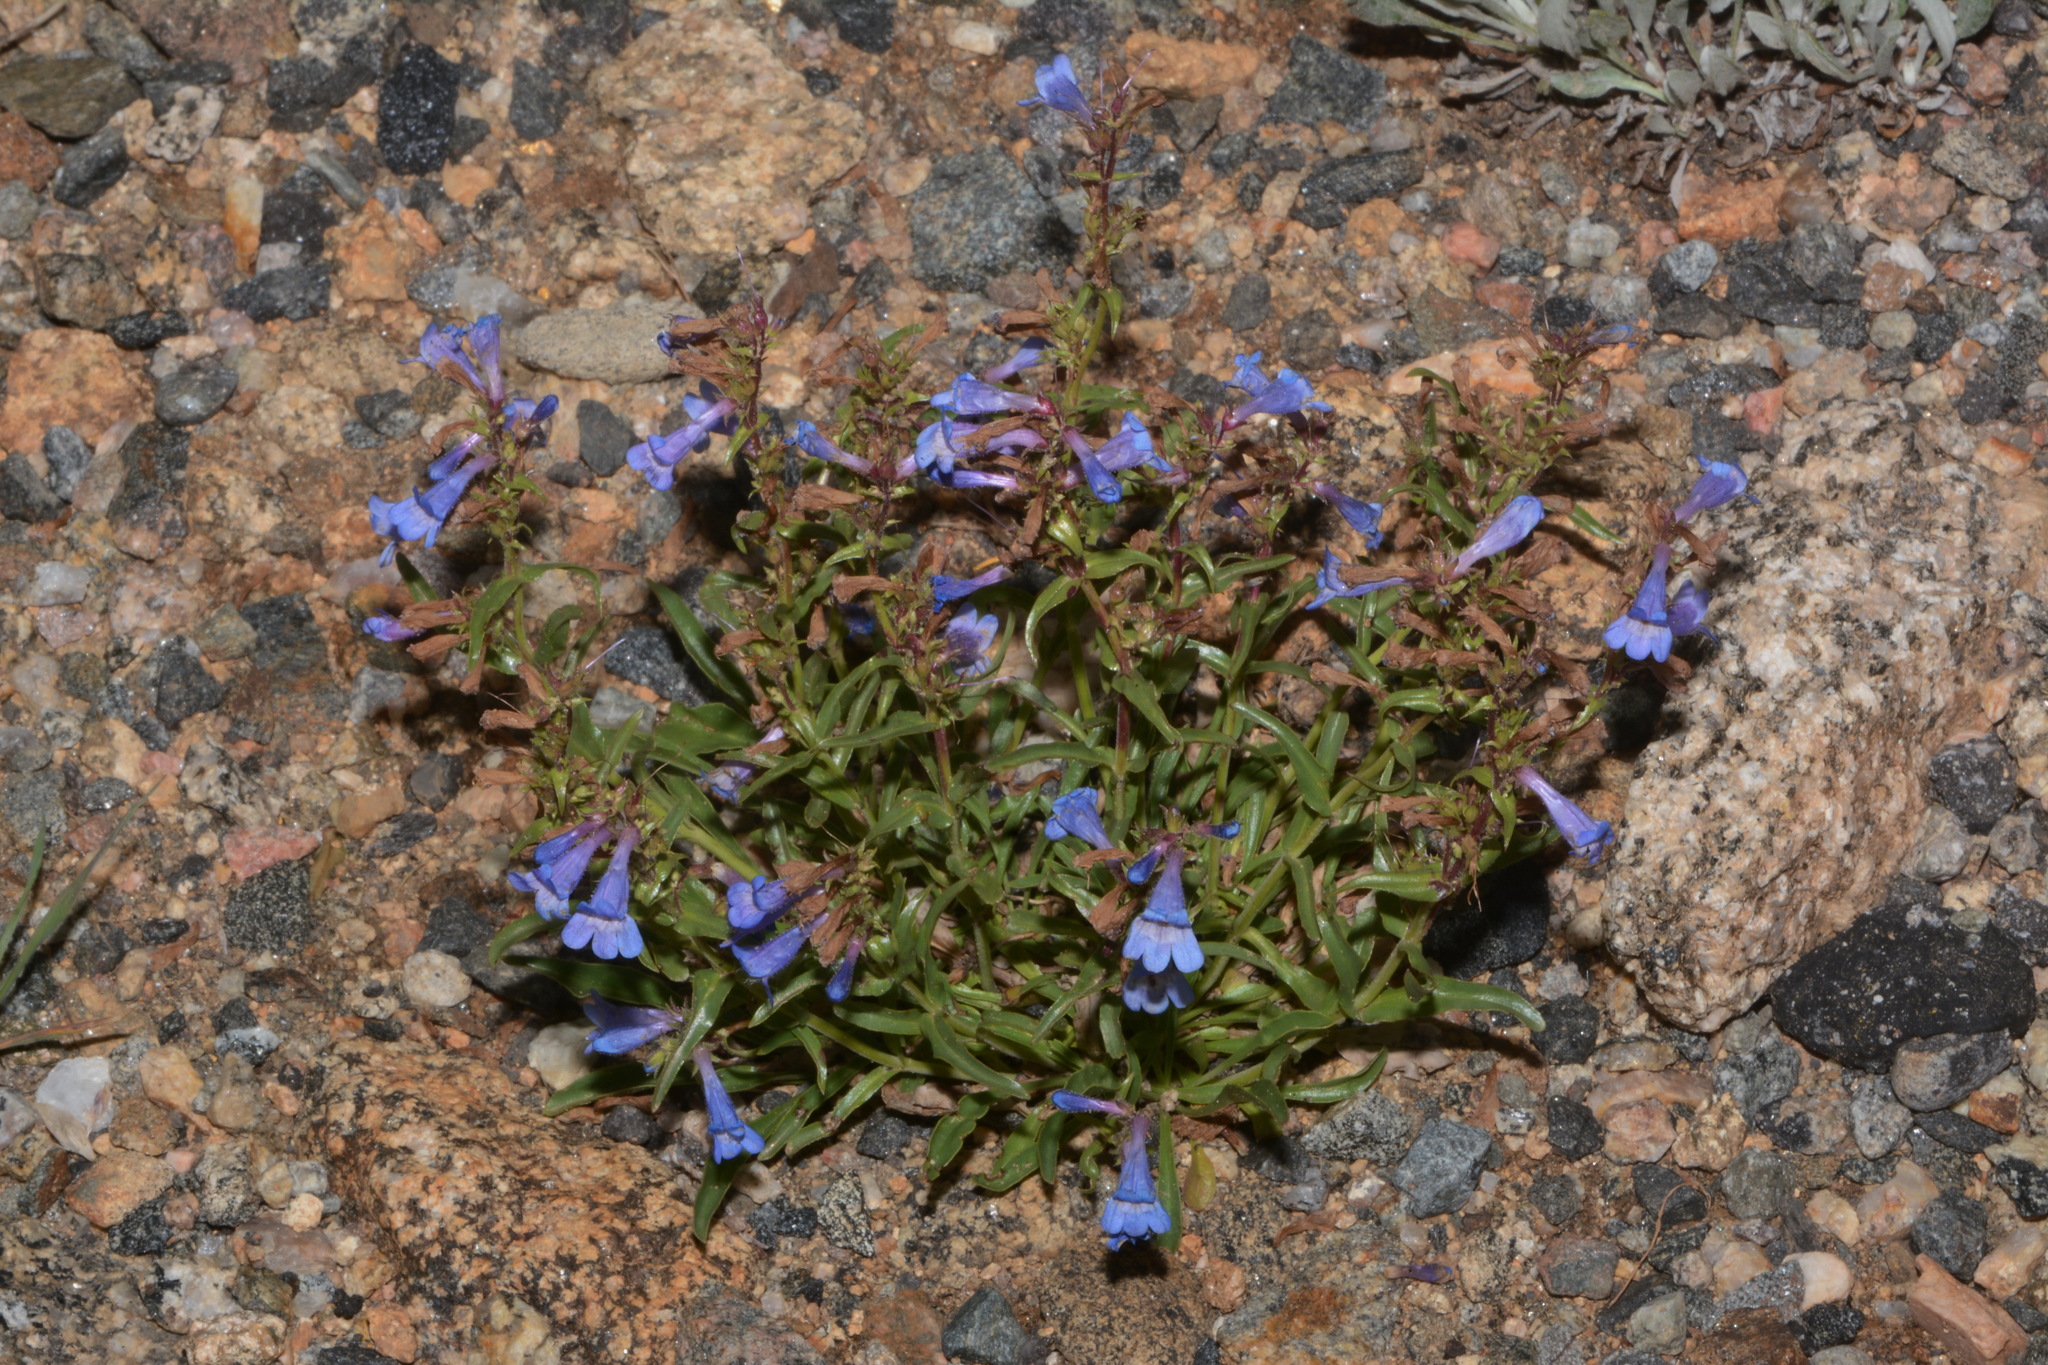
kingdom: Plantae
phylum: Tracheophyta
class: Magnoliopsida
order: Lamiales
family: Plantaginaceae
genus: Penstemon
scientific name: Penstemon virens
